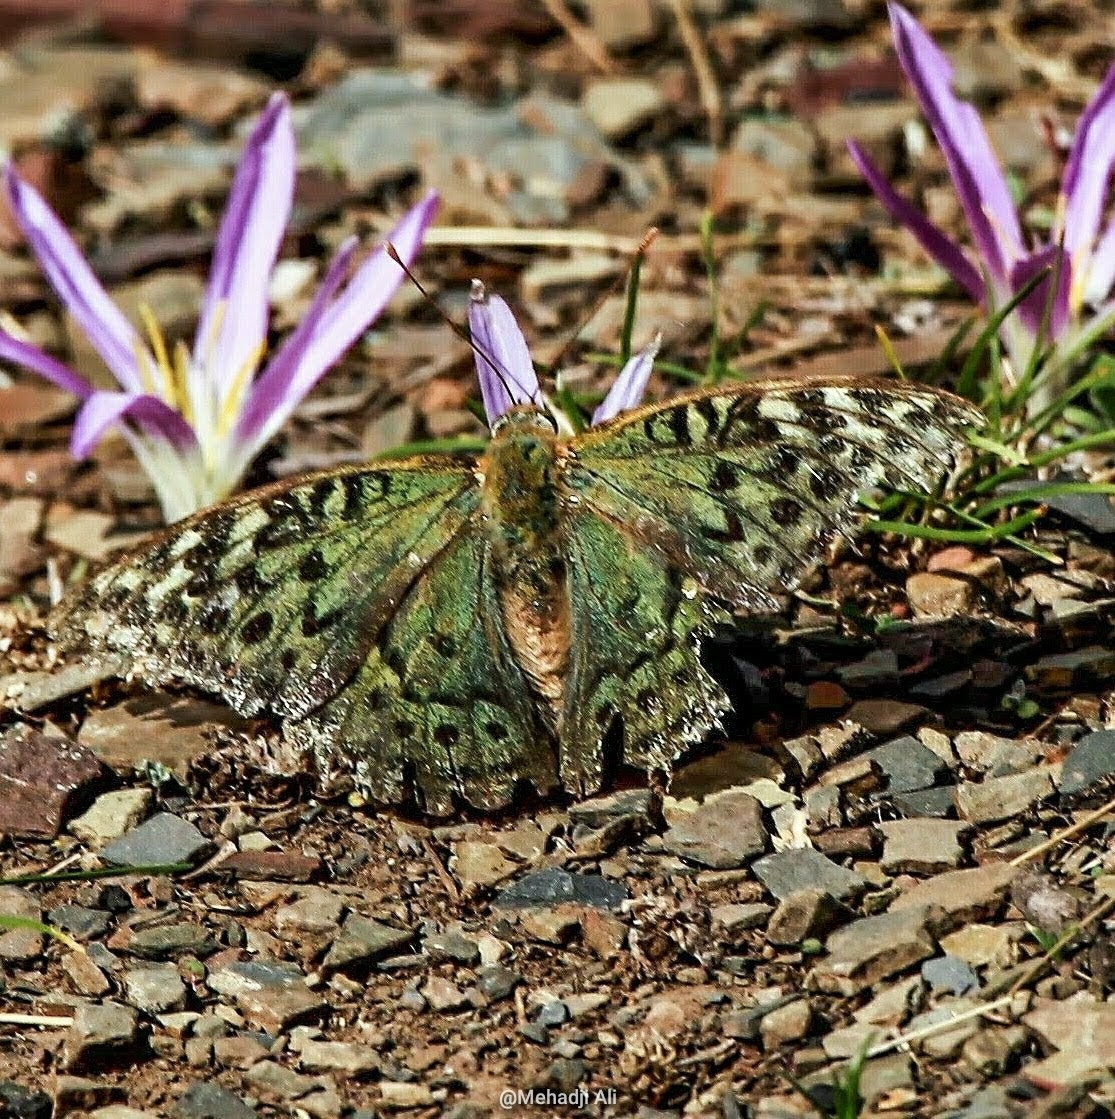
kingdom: Animalia
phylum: Arthropoda
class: Insecta
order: Lepidoptera
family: Nymphalidae
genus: Damora
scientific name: Damora pandora
